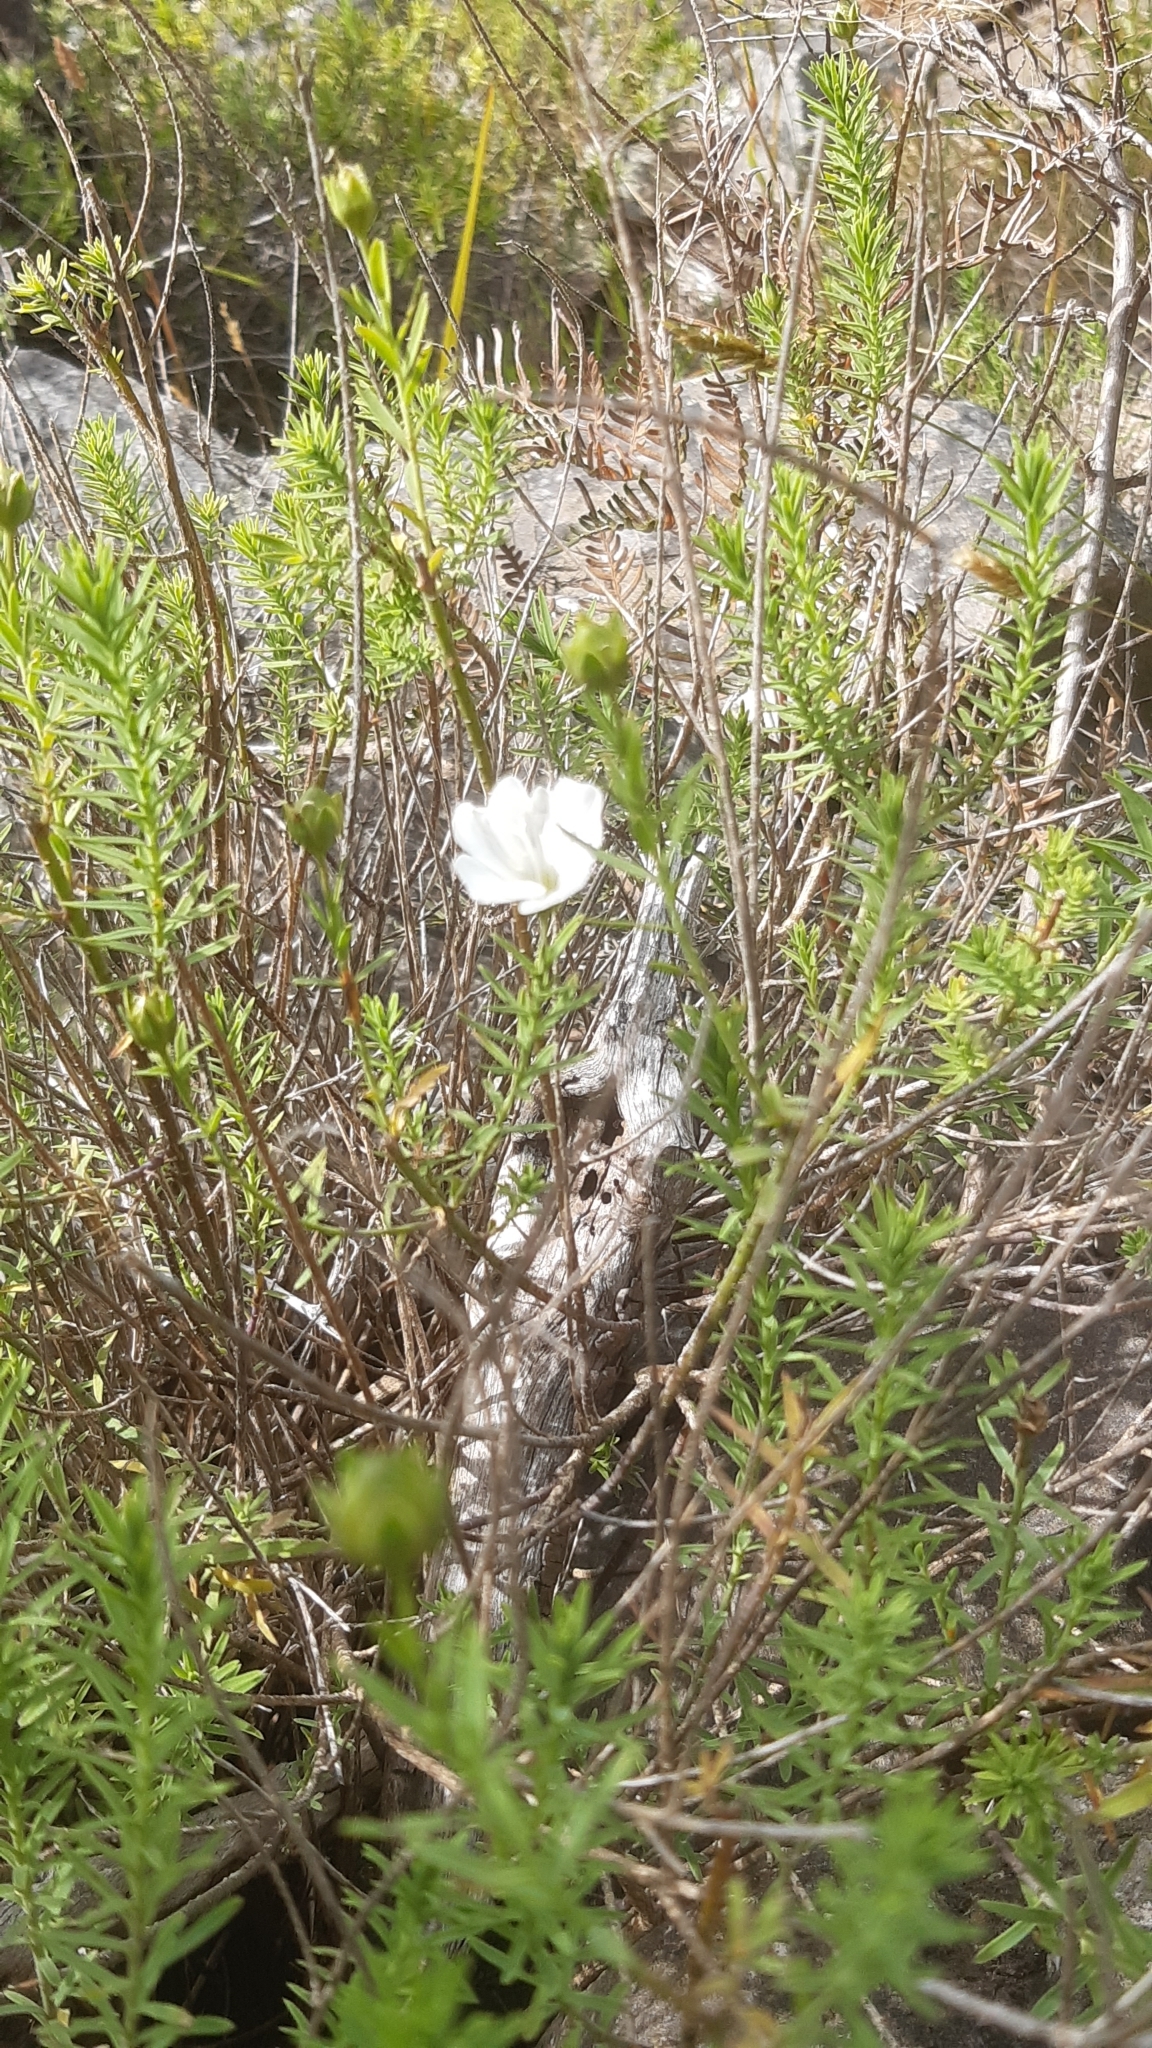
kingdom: Plantae
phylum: Tracheophyta
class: Magnoliopsida
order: Malpighiales
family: Linaceae
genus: Linum
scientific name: Linum monogynum
